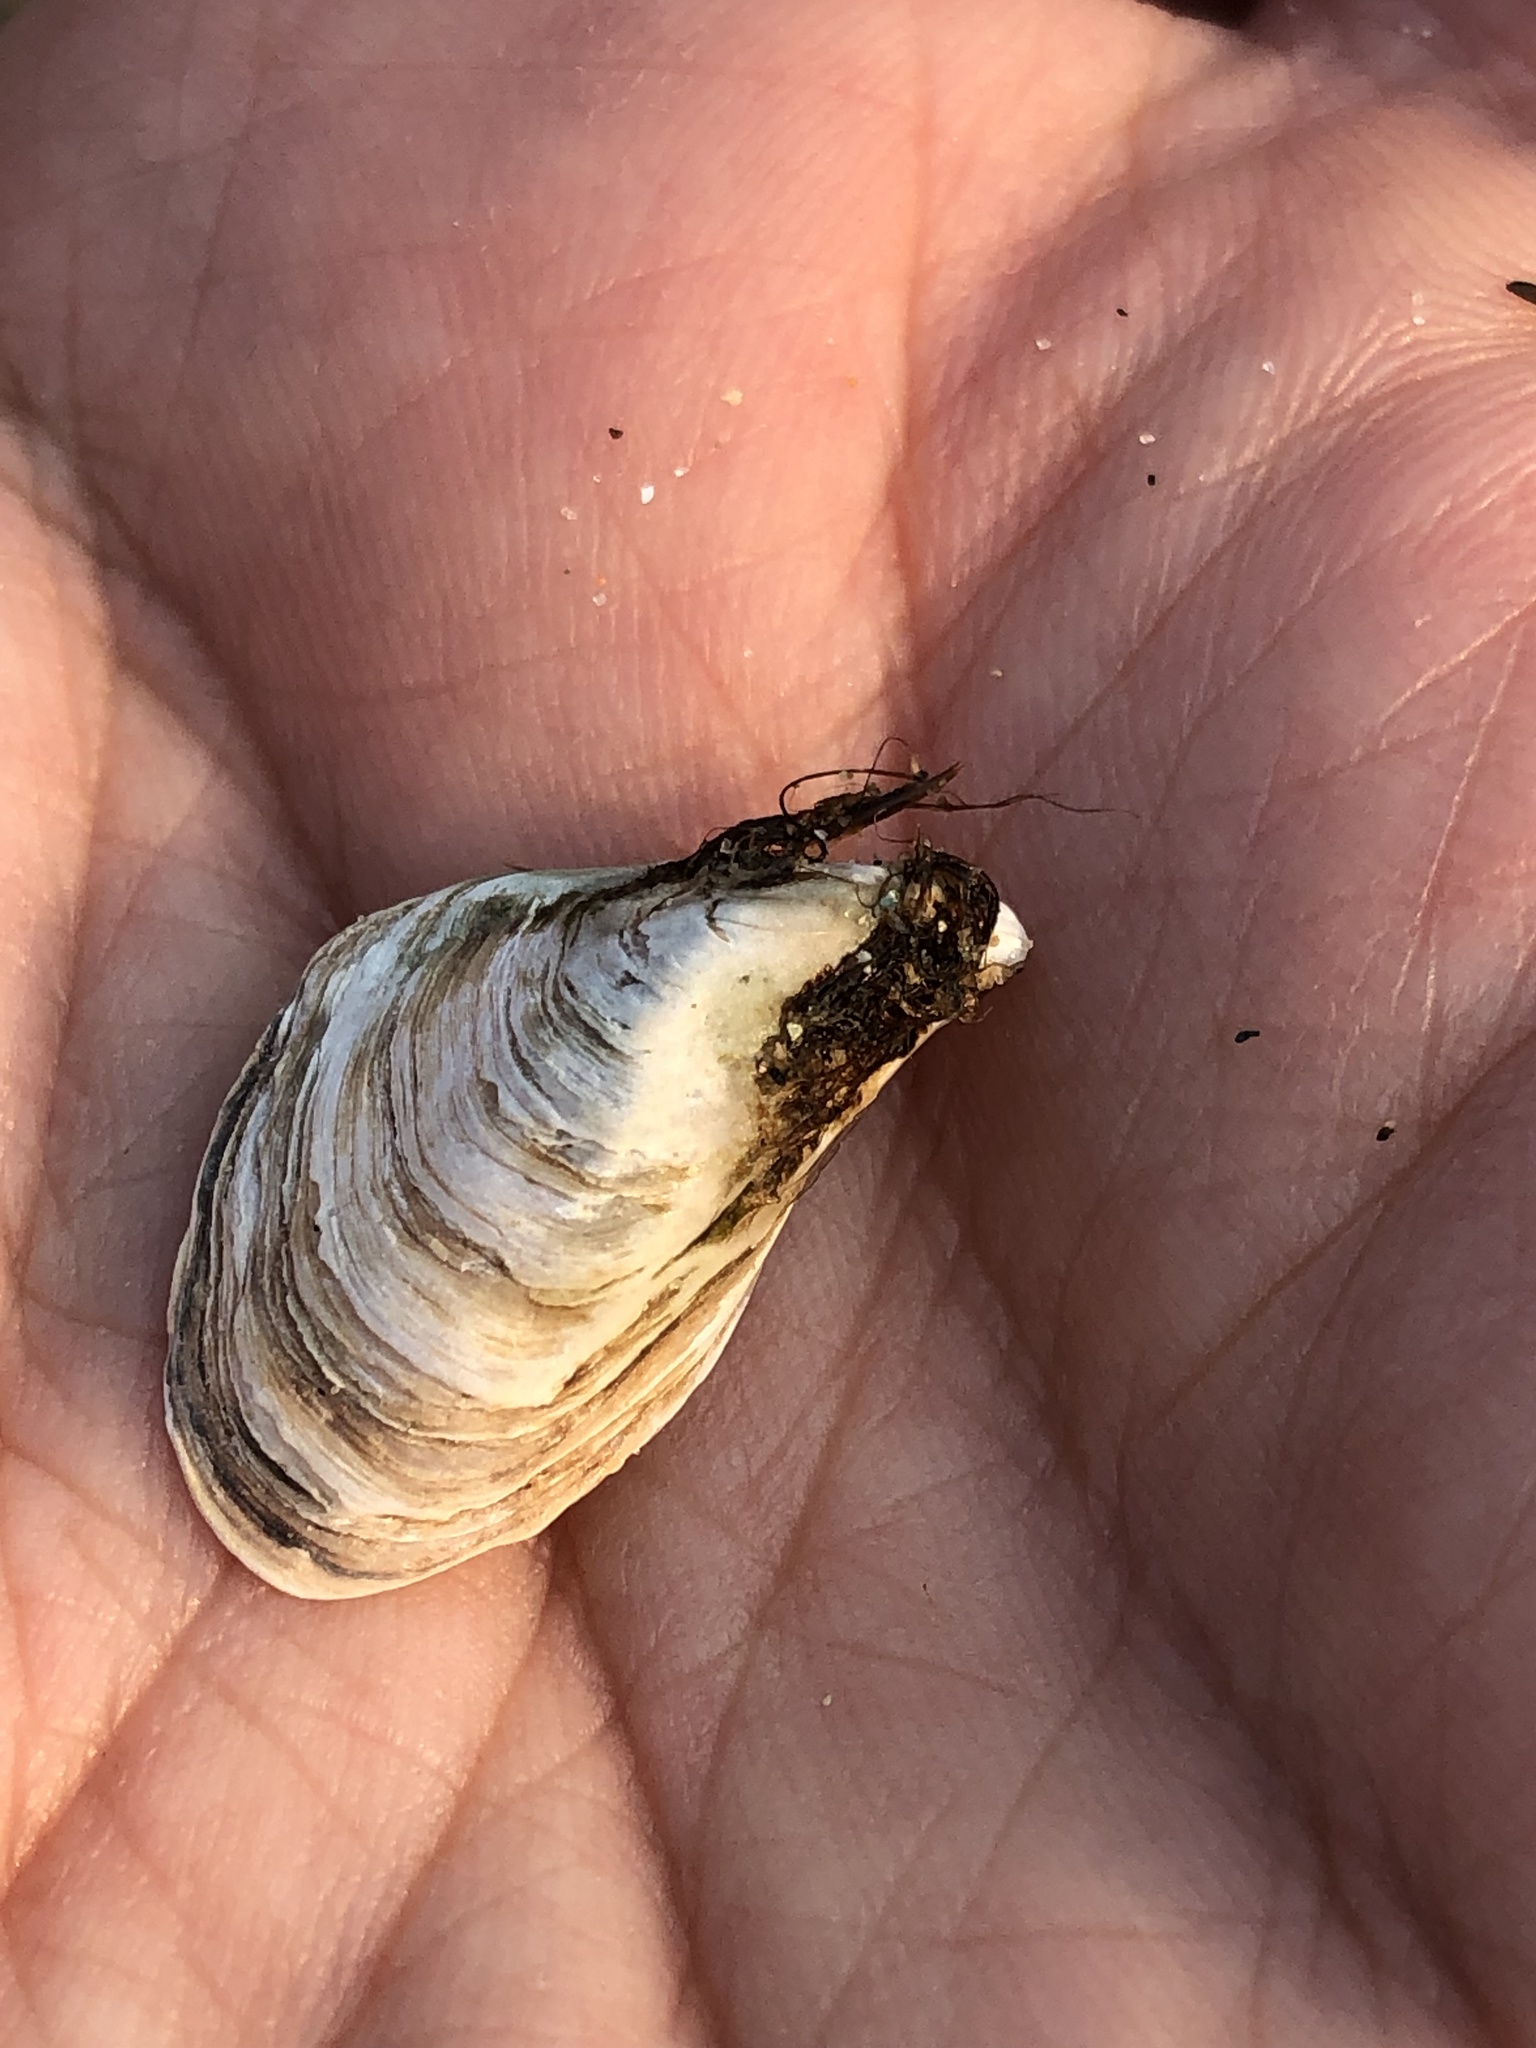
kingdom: Animalia
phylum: Mollusca
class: Bivalvia
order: Myida
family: Dreissenidae
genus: Dreissena
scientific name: Dreissena bugensis
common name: Quagga mussel
